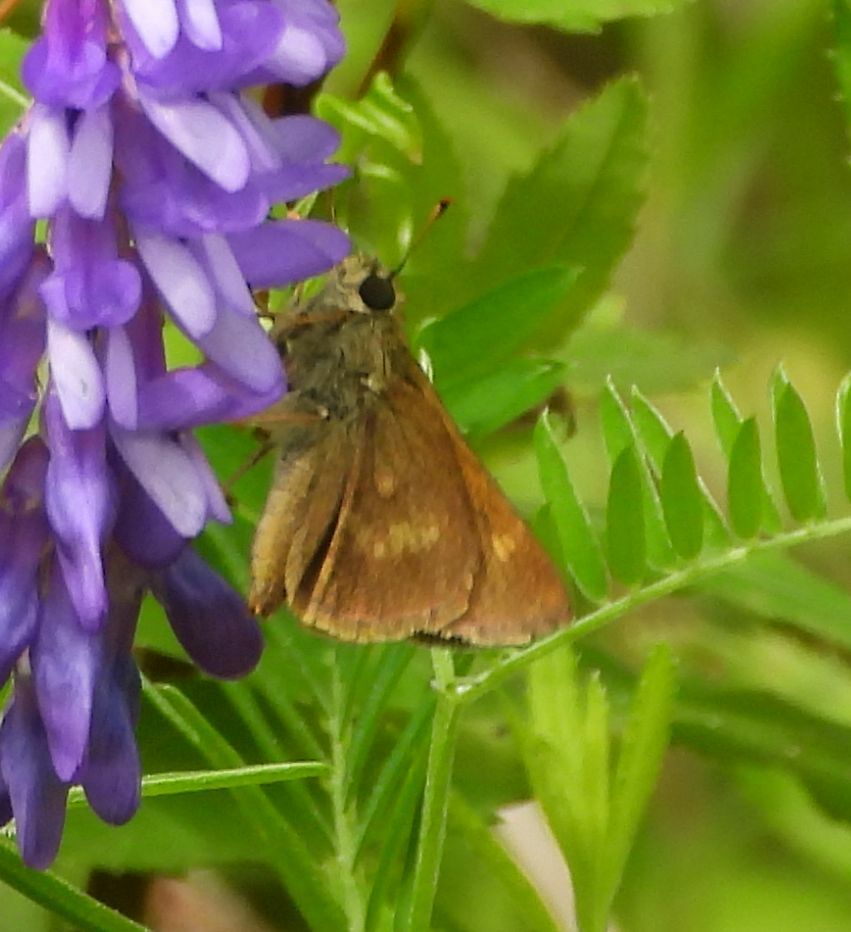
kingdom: Animalia
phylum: Arthropoda
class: Insecta
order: Lepidoptera
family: Hesperiidae
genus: Polites
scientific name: Polites egeremet
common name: Northern broken-dash
